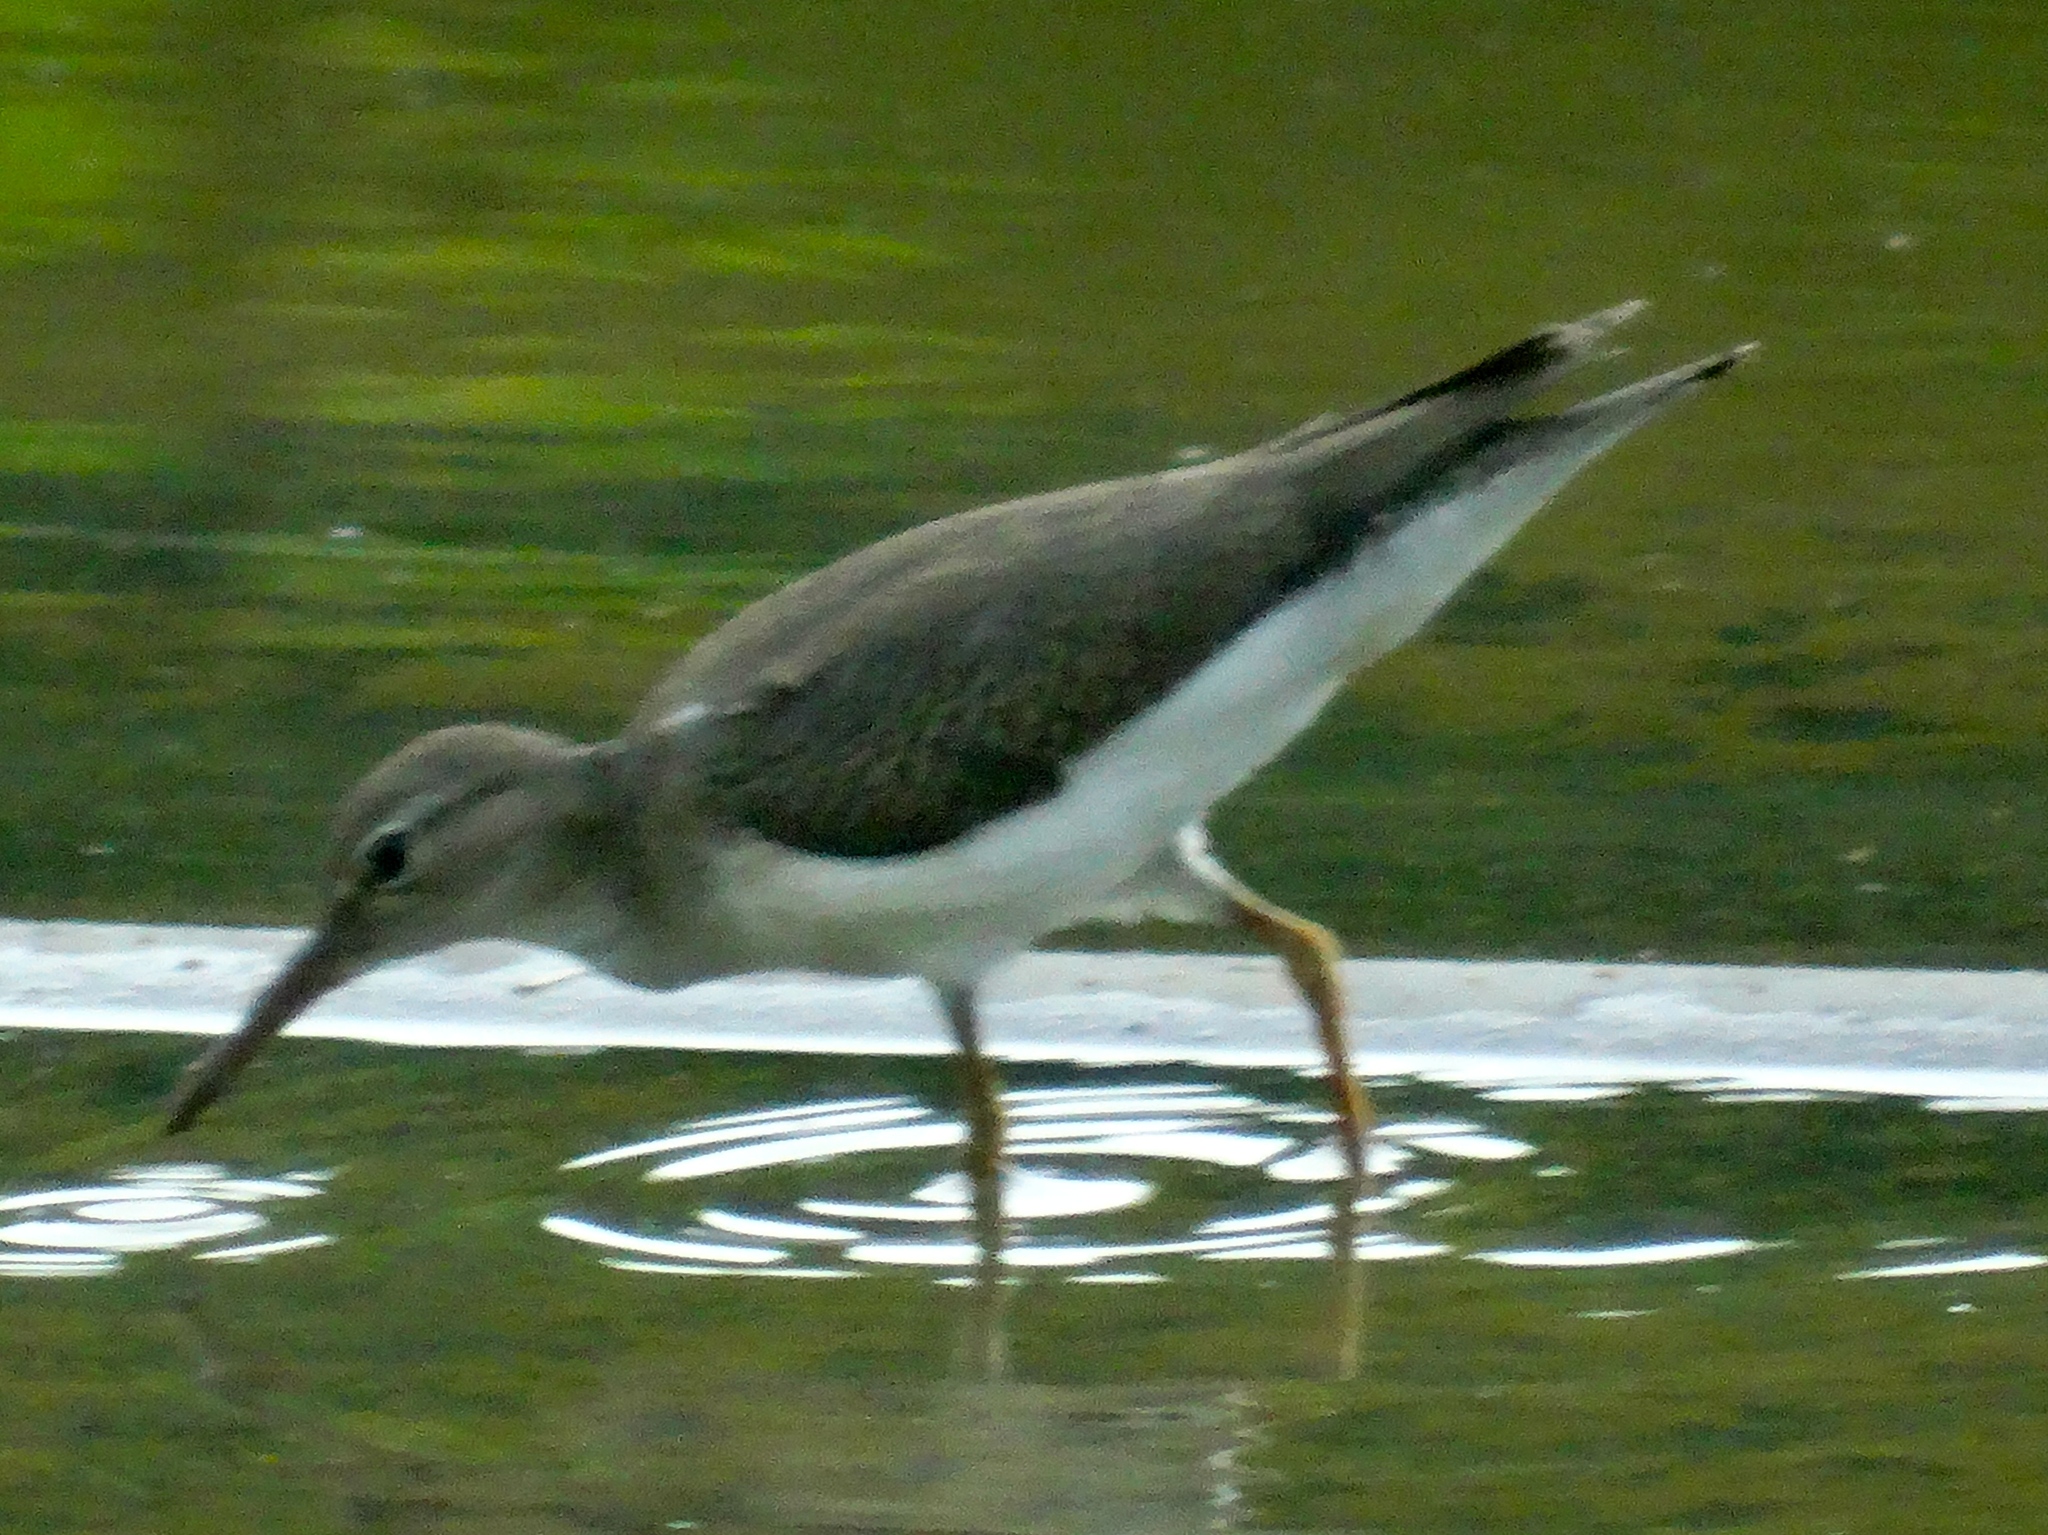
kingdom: Animalia
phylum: Chordata
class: Aves
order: Charadriiformes
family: Scolopacidae
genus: Actitis
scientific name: Actitis macularius
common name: Spotted sandpiper
